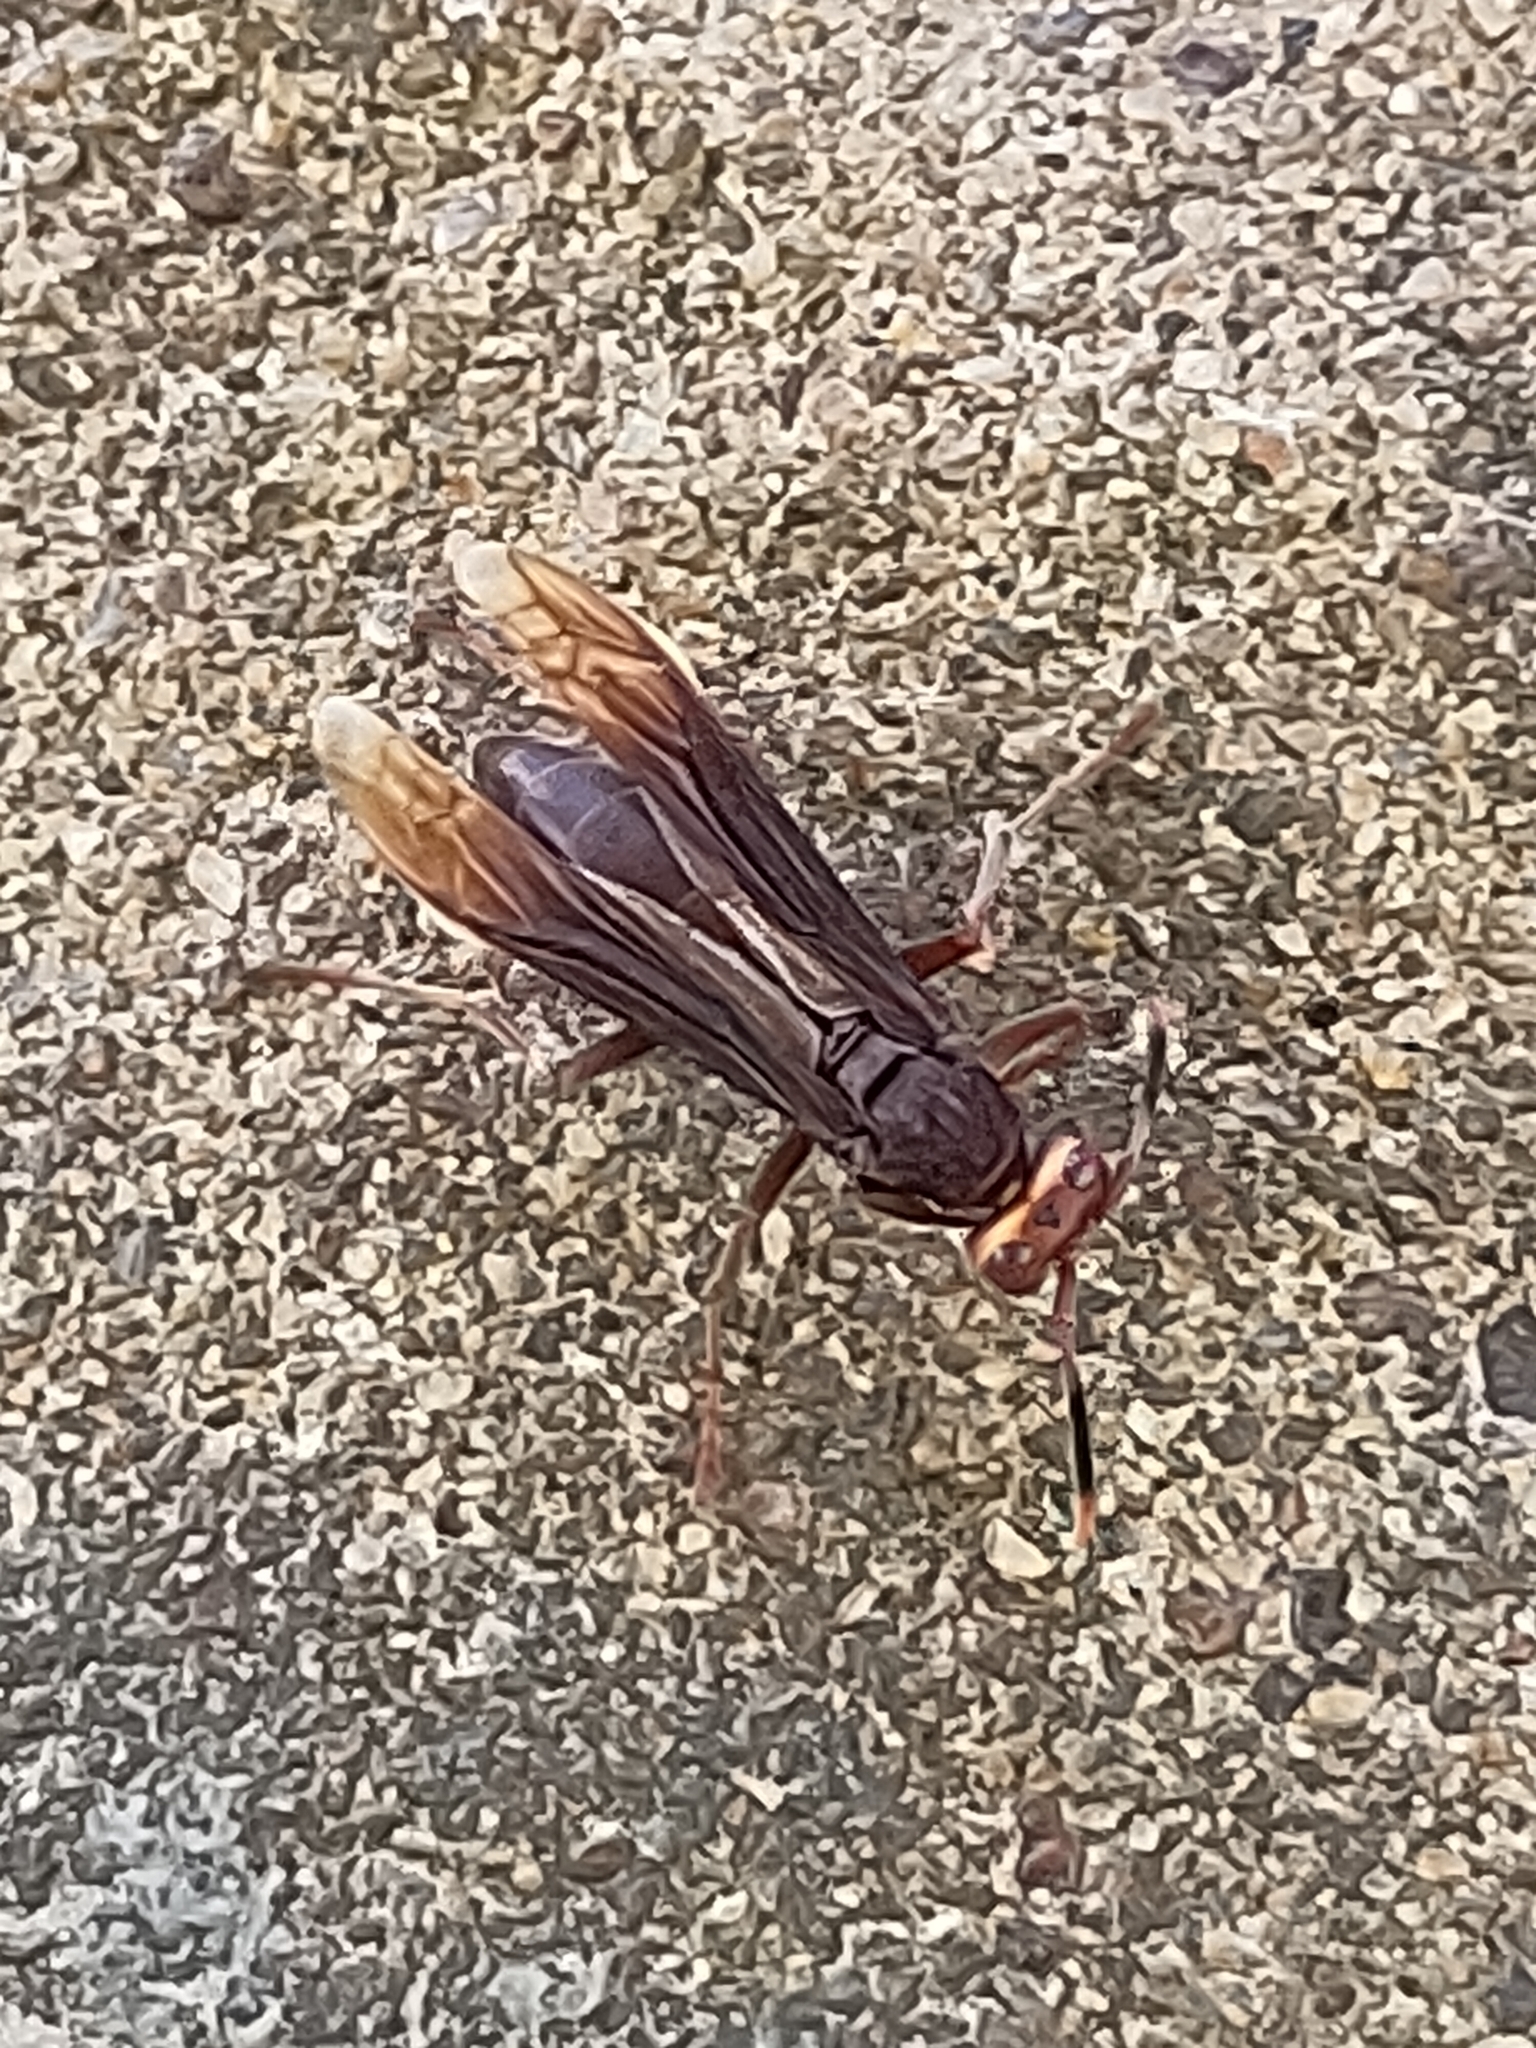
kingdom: Animalia
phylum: Arthropoda
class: Insecta
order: Hymenoptera
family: Eumenidae
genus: Polistes
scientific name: Polistes infuscatus
